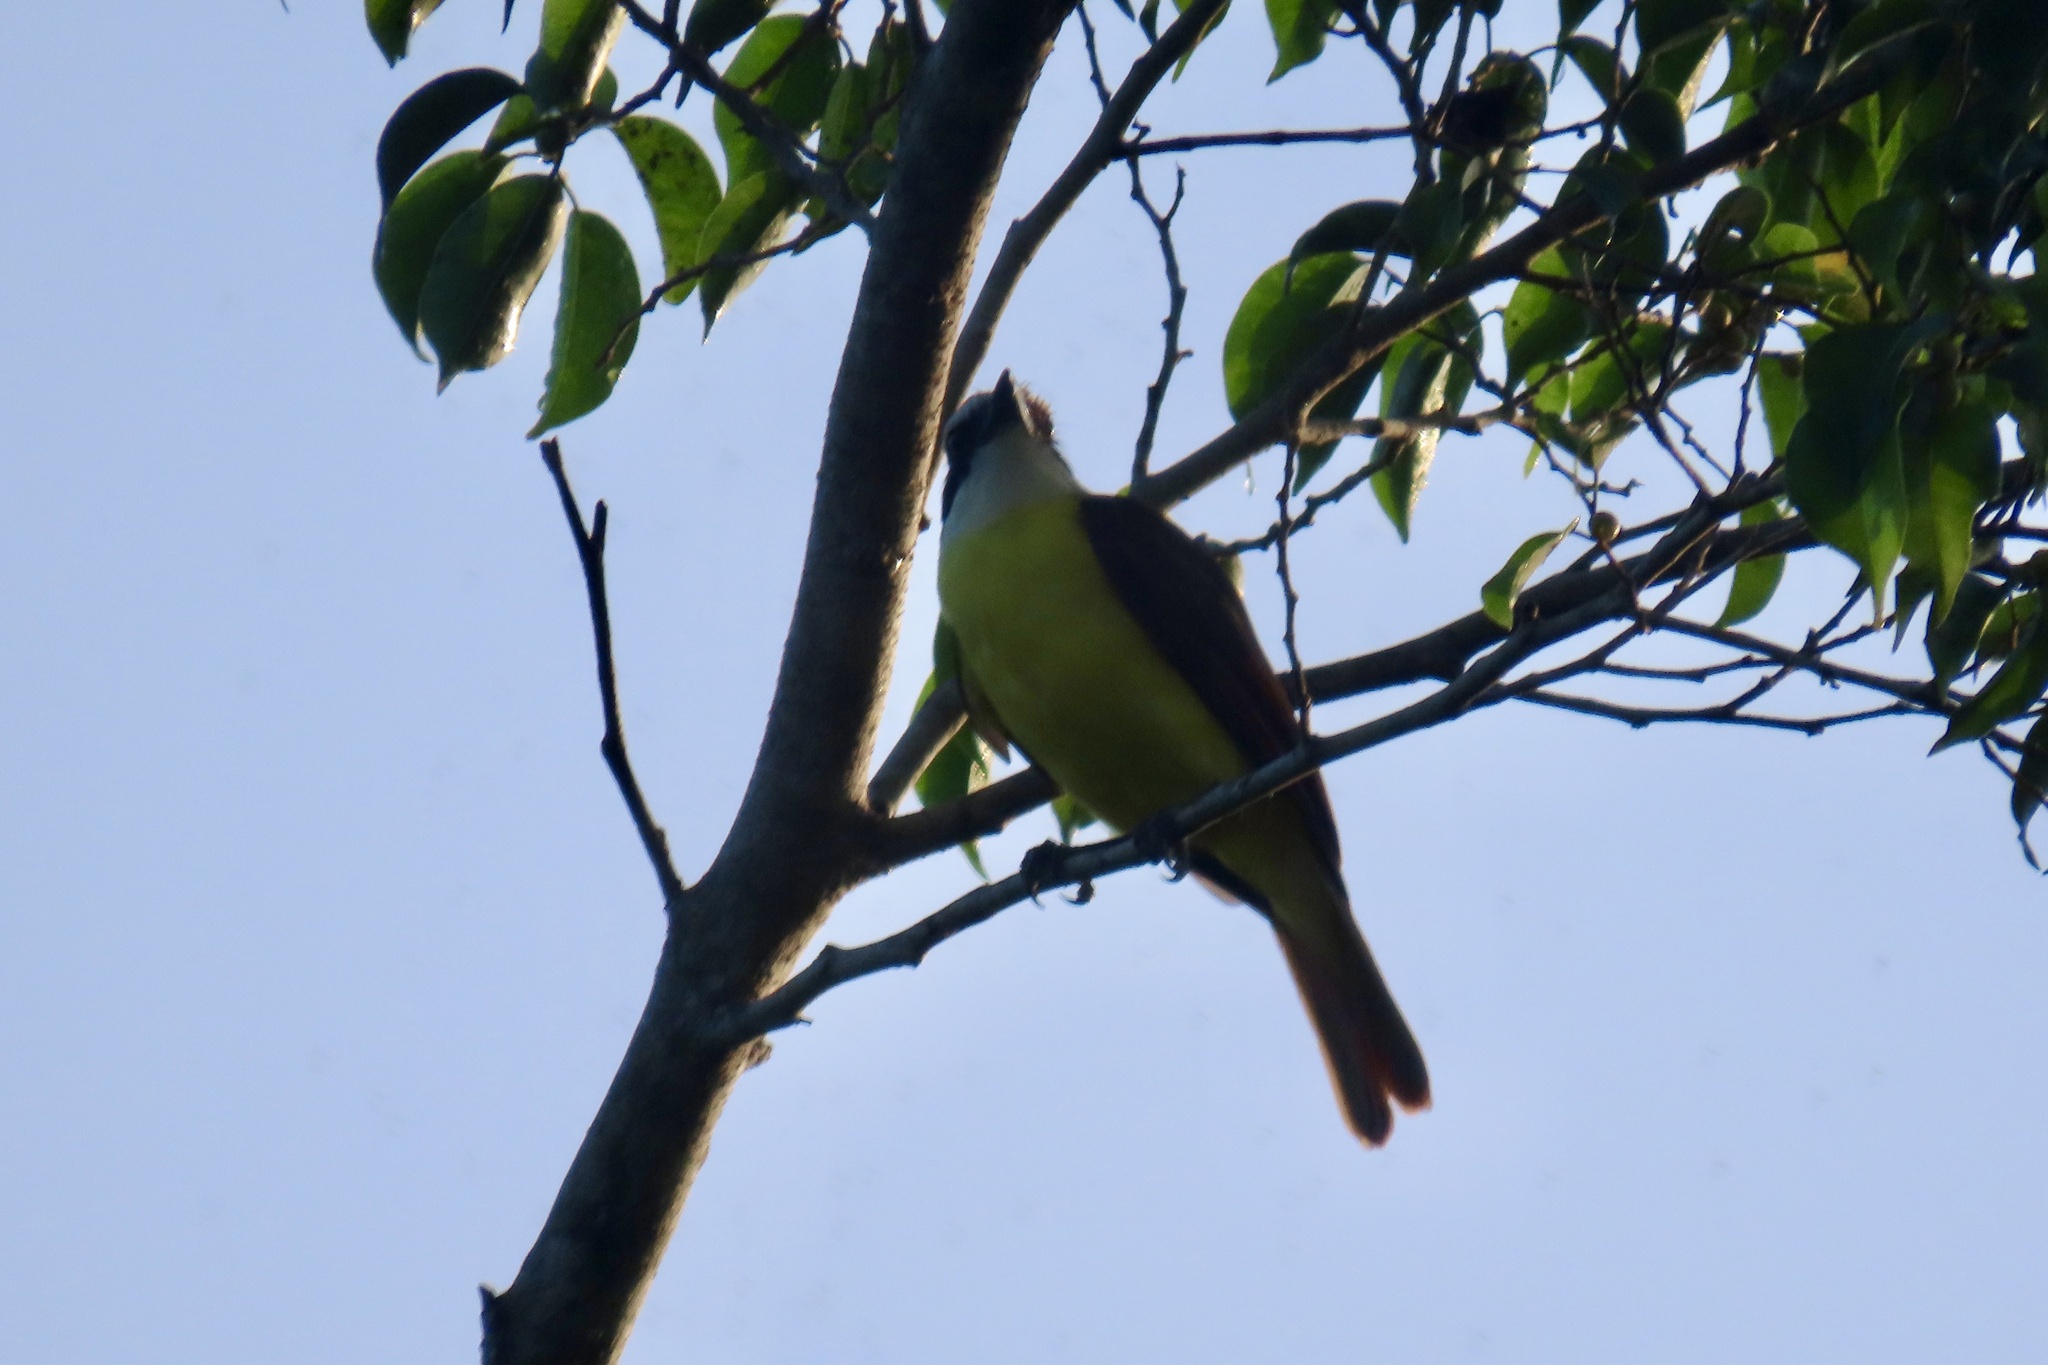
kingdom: Animalia
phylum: Chordata
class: Aves
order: Passeriformes
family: Tyrannidae
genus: Pitangus
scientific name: Pitangus sulphuratus
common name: Great kiskadee
